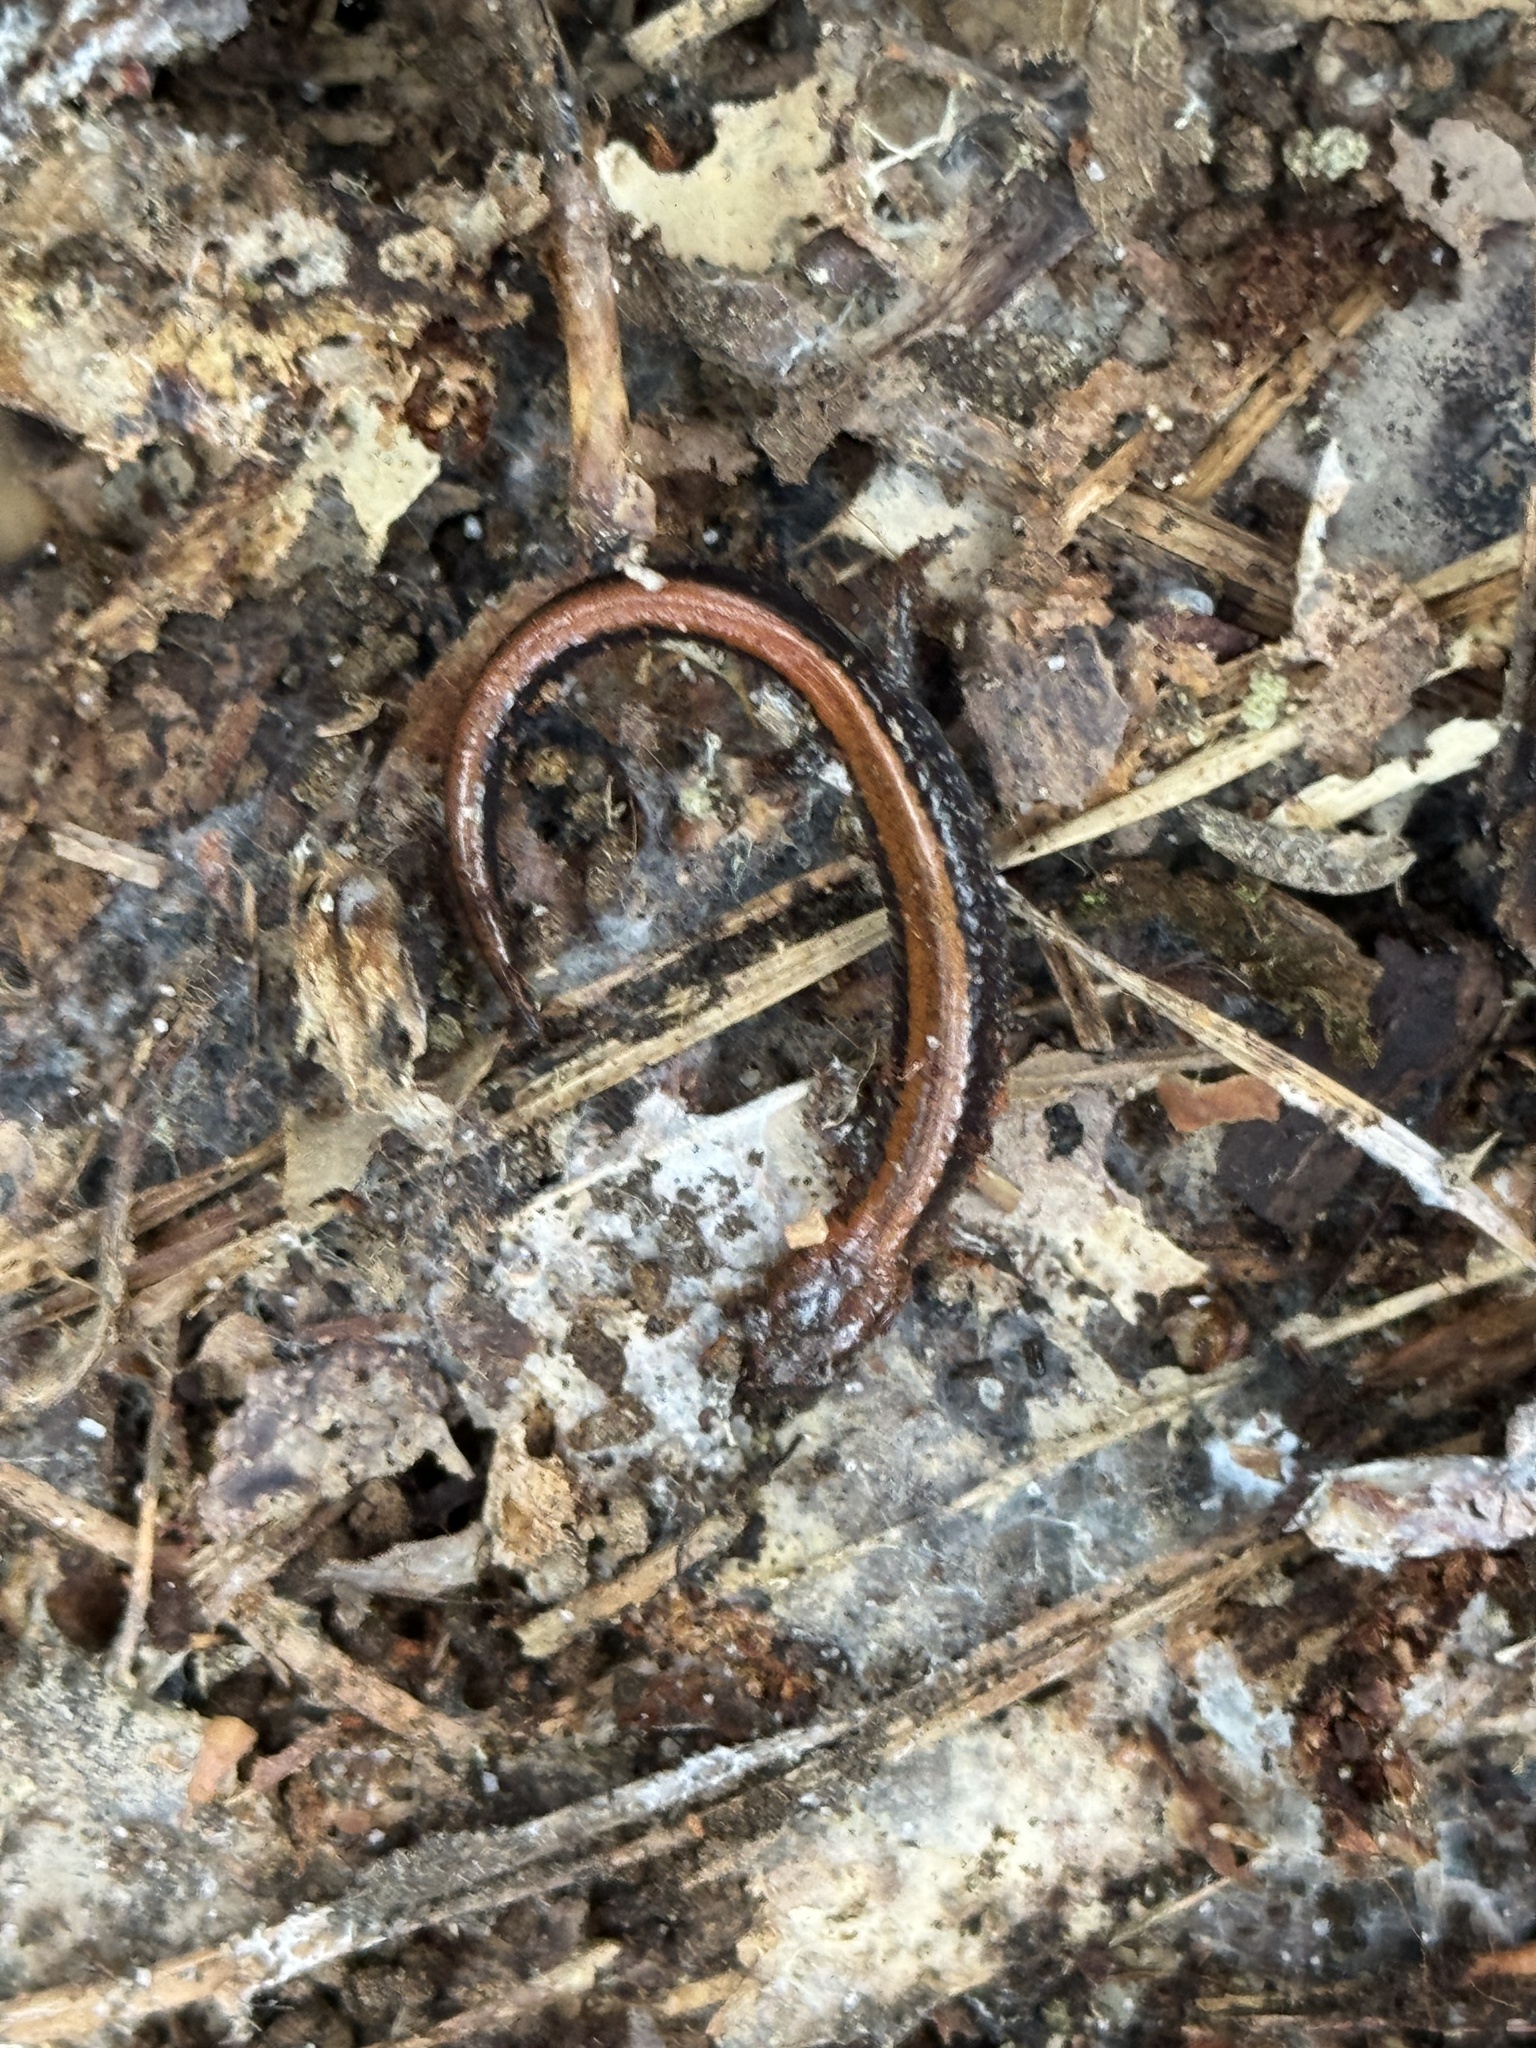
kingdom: Animalia
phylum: Chordata
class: Amphibia
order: Caudata
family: Plethodontidae
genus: Plethodon
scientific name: Plethodon cinereus
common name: Redback salamander
